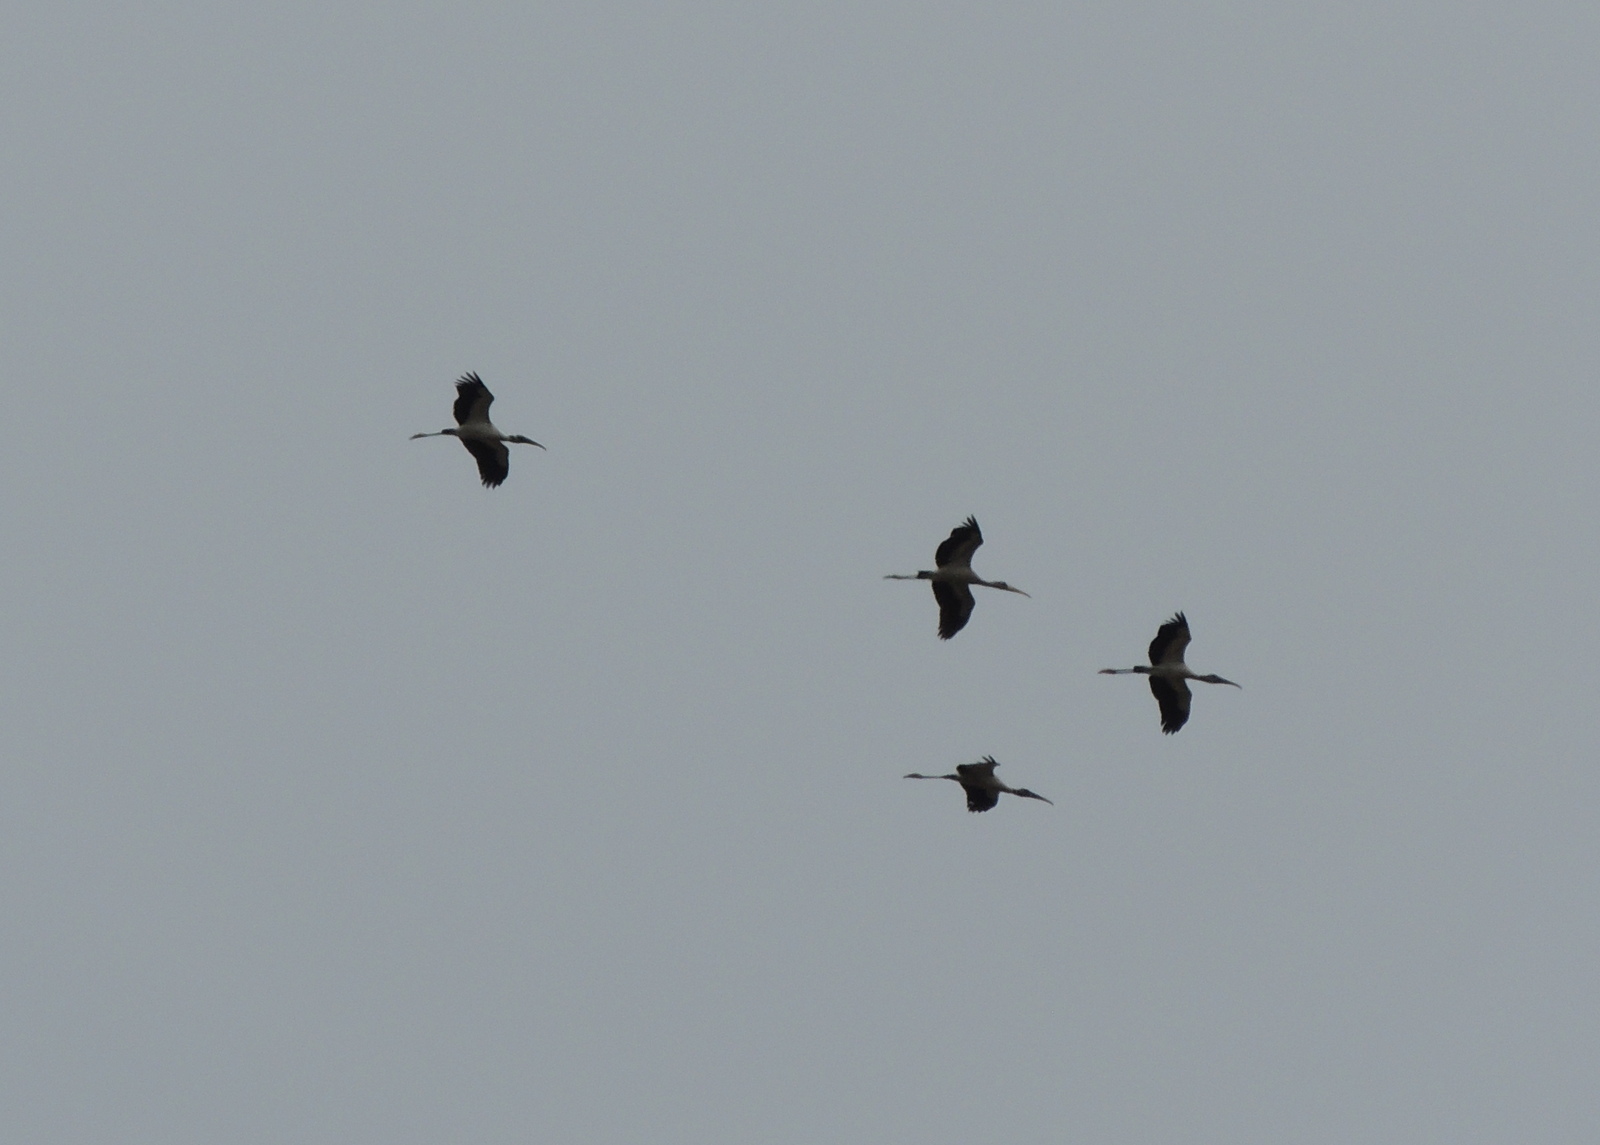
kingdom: Animalia
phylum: Chordata
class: Aves
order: Ciconiiformes
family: Ciconiidae
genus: Mycteria
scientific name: Mycteria americana
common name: Wood stork
